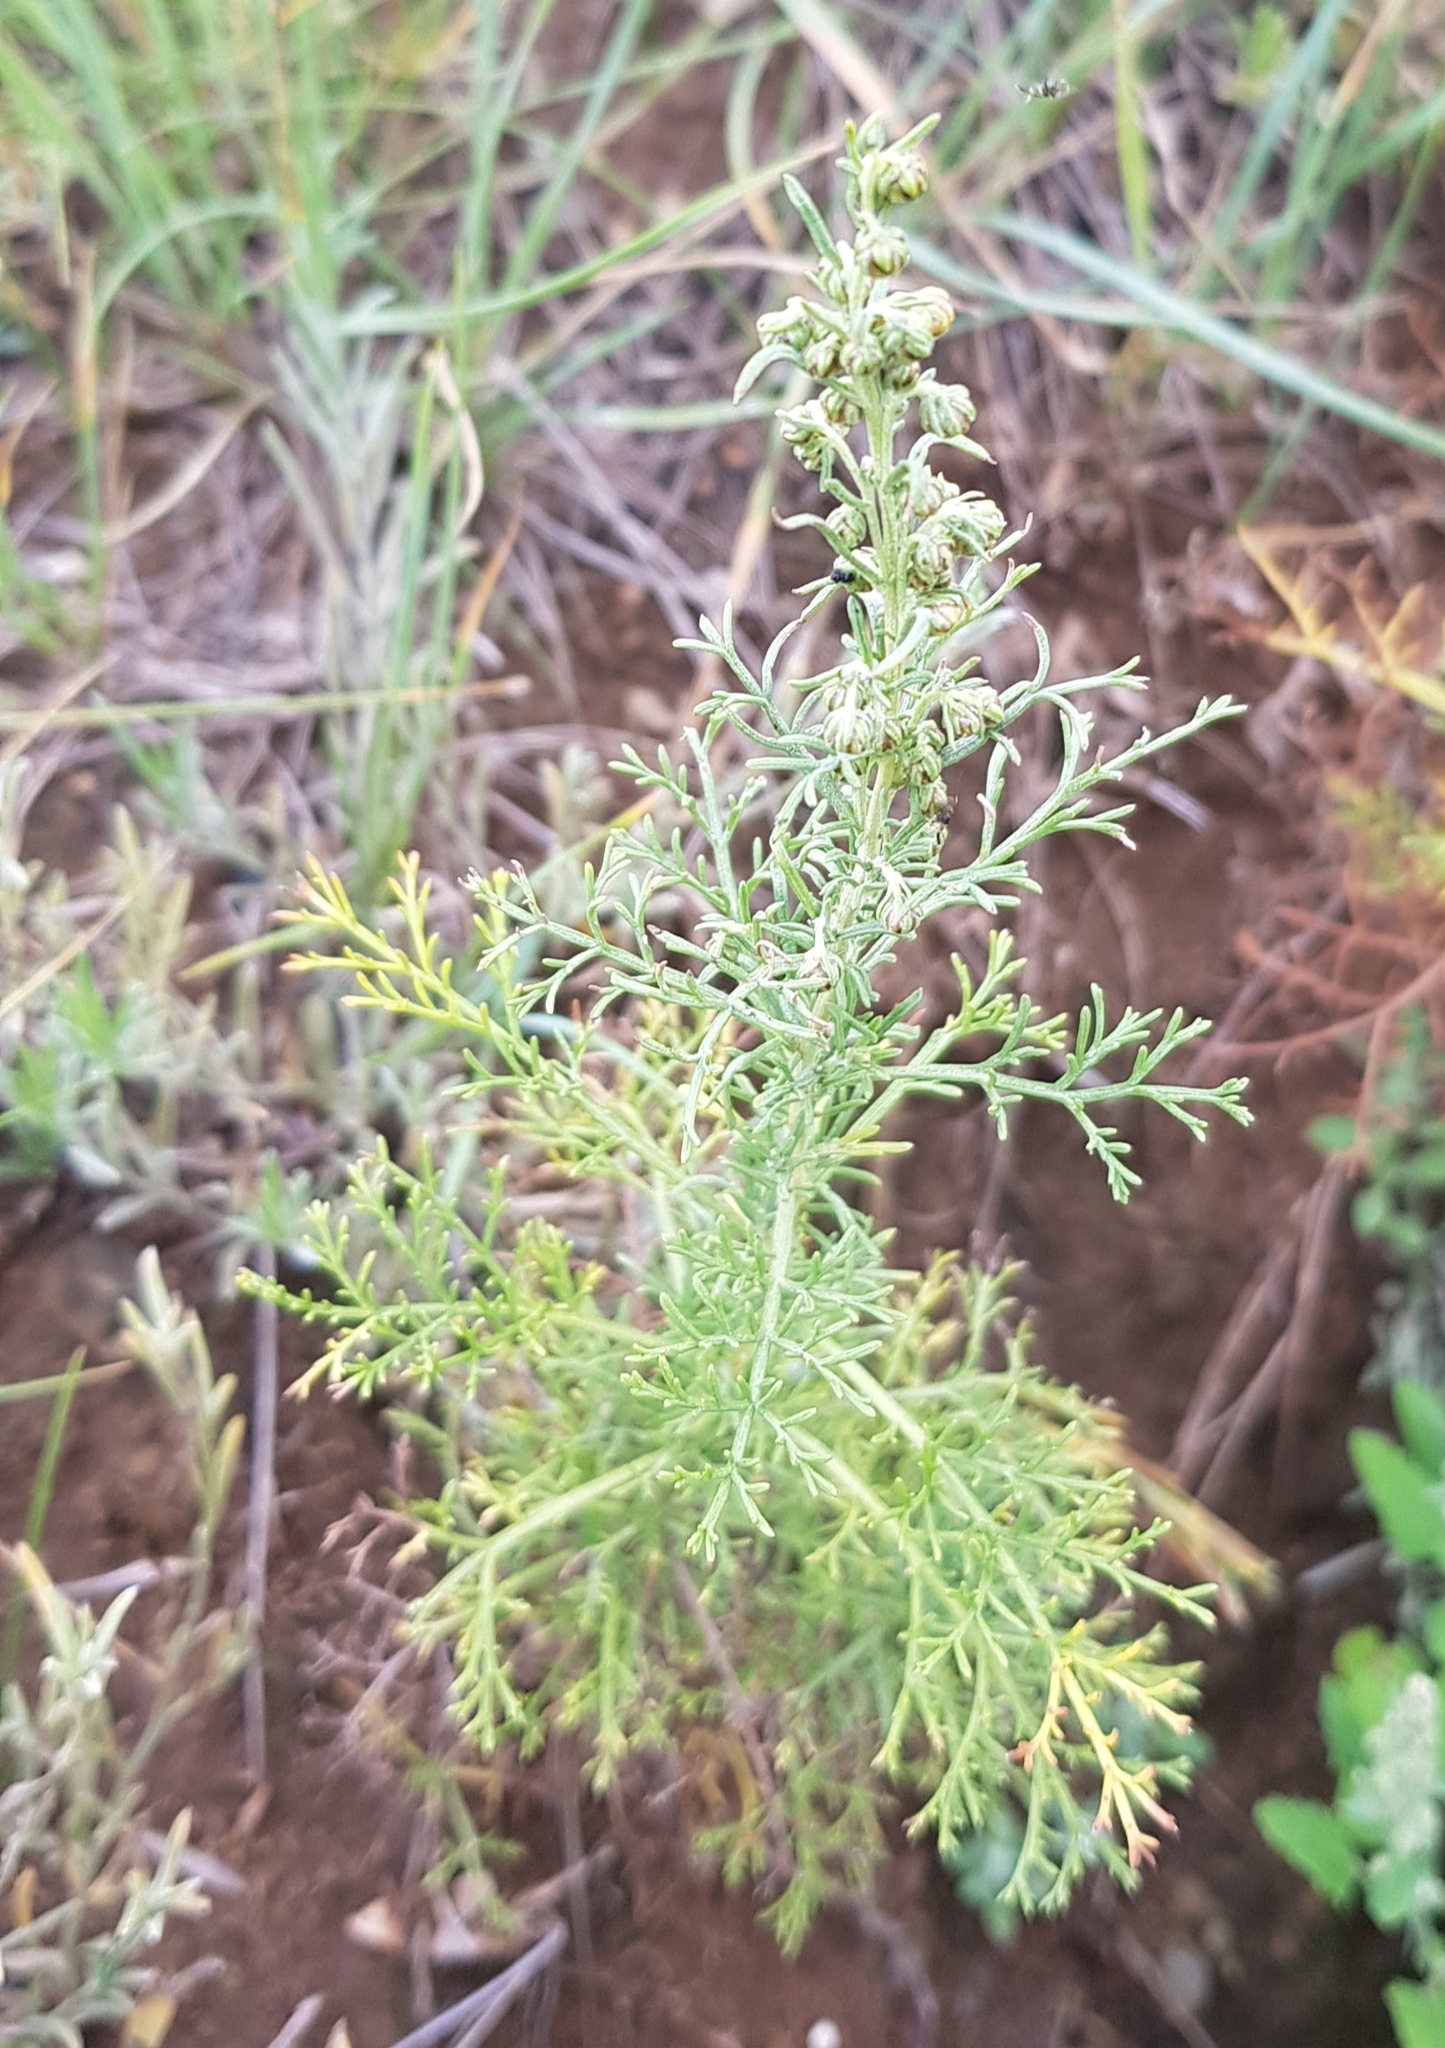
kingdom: Plantae
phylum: Tracheophyta
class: Magnoliopsida
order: Asterales
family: Asteraceae
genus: Artemisia
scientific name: Artemisia adamsii
